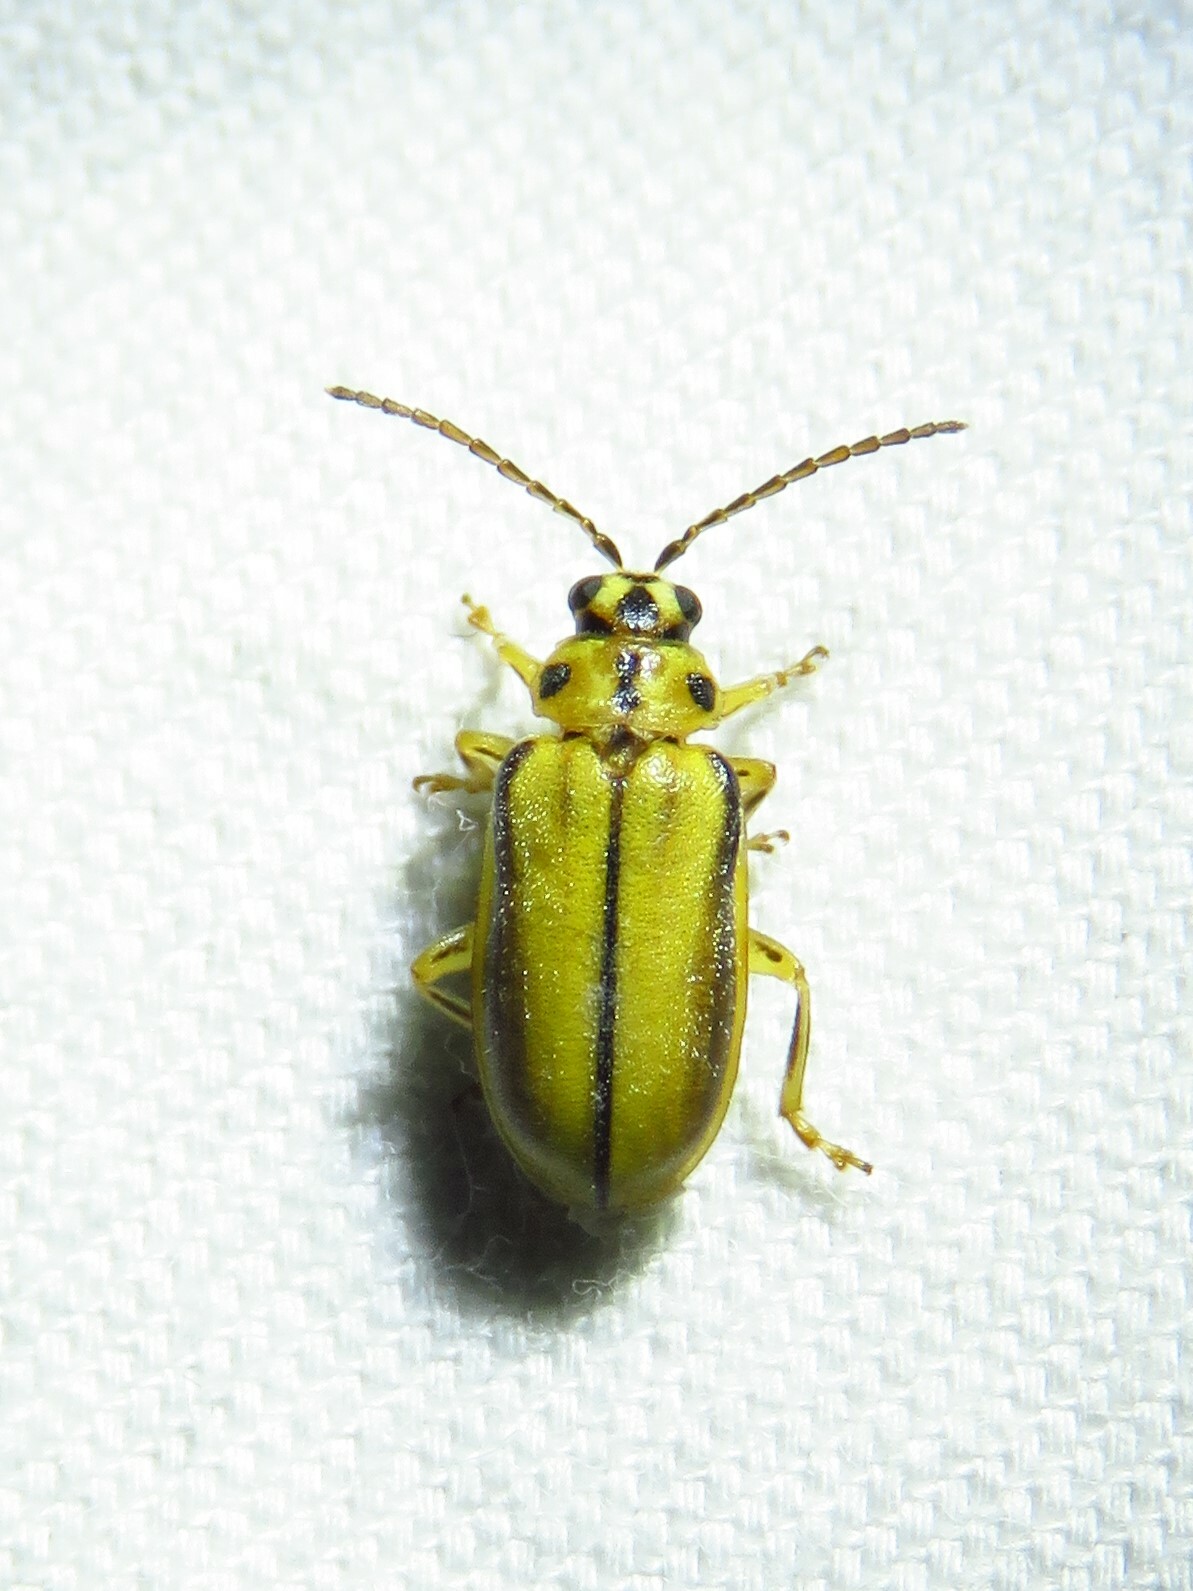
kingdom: Animalia
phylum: Arthropoda
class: Insecta
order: Coleoptera
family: Chrysomelidae
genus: Xanthogaleruca
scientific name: Xanthogaleruca luteola
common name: Elm leaf beetle
